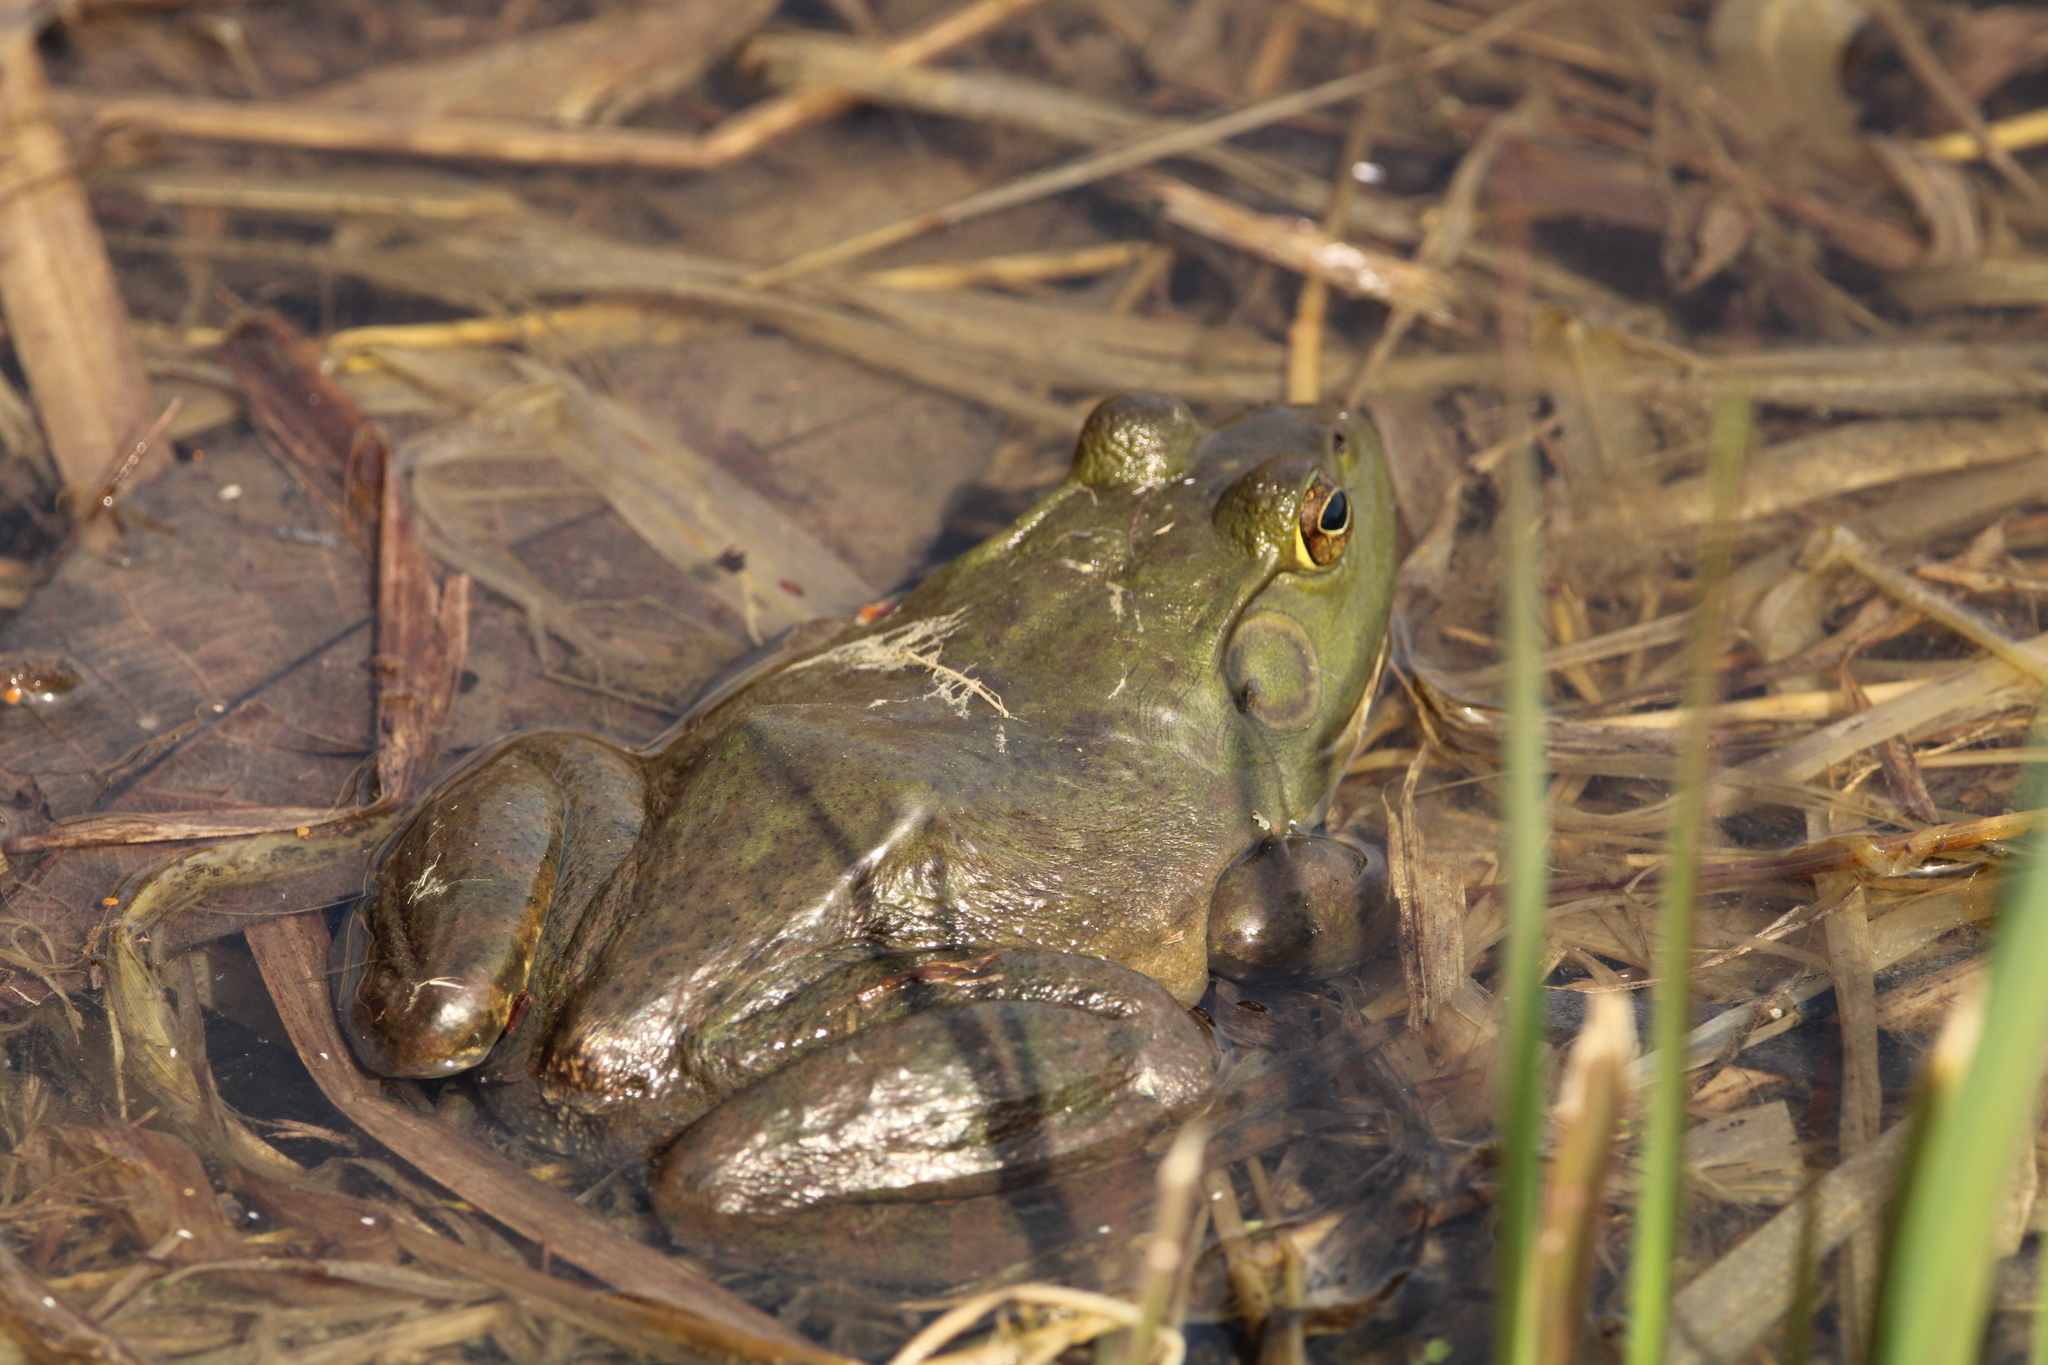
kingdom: Animalia
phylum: Chordata
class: Amphibia
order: Anura
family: Ranidae
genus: Lithobates
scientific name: Lithobates catesbeianus
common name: American bullfrog
